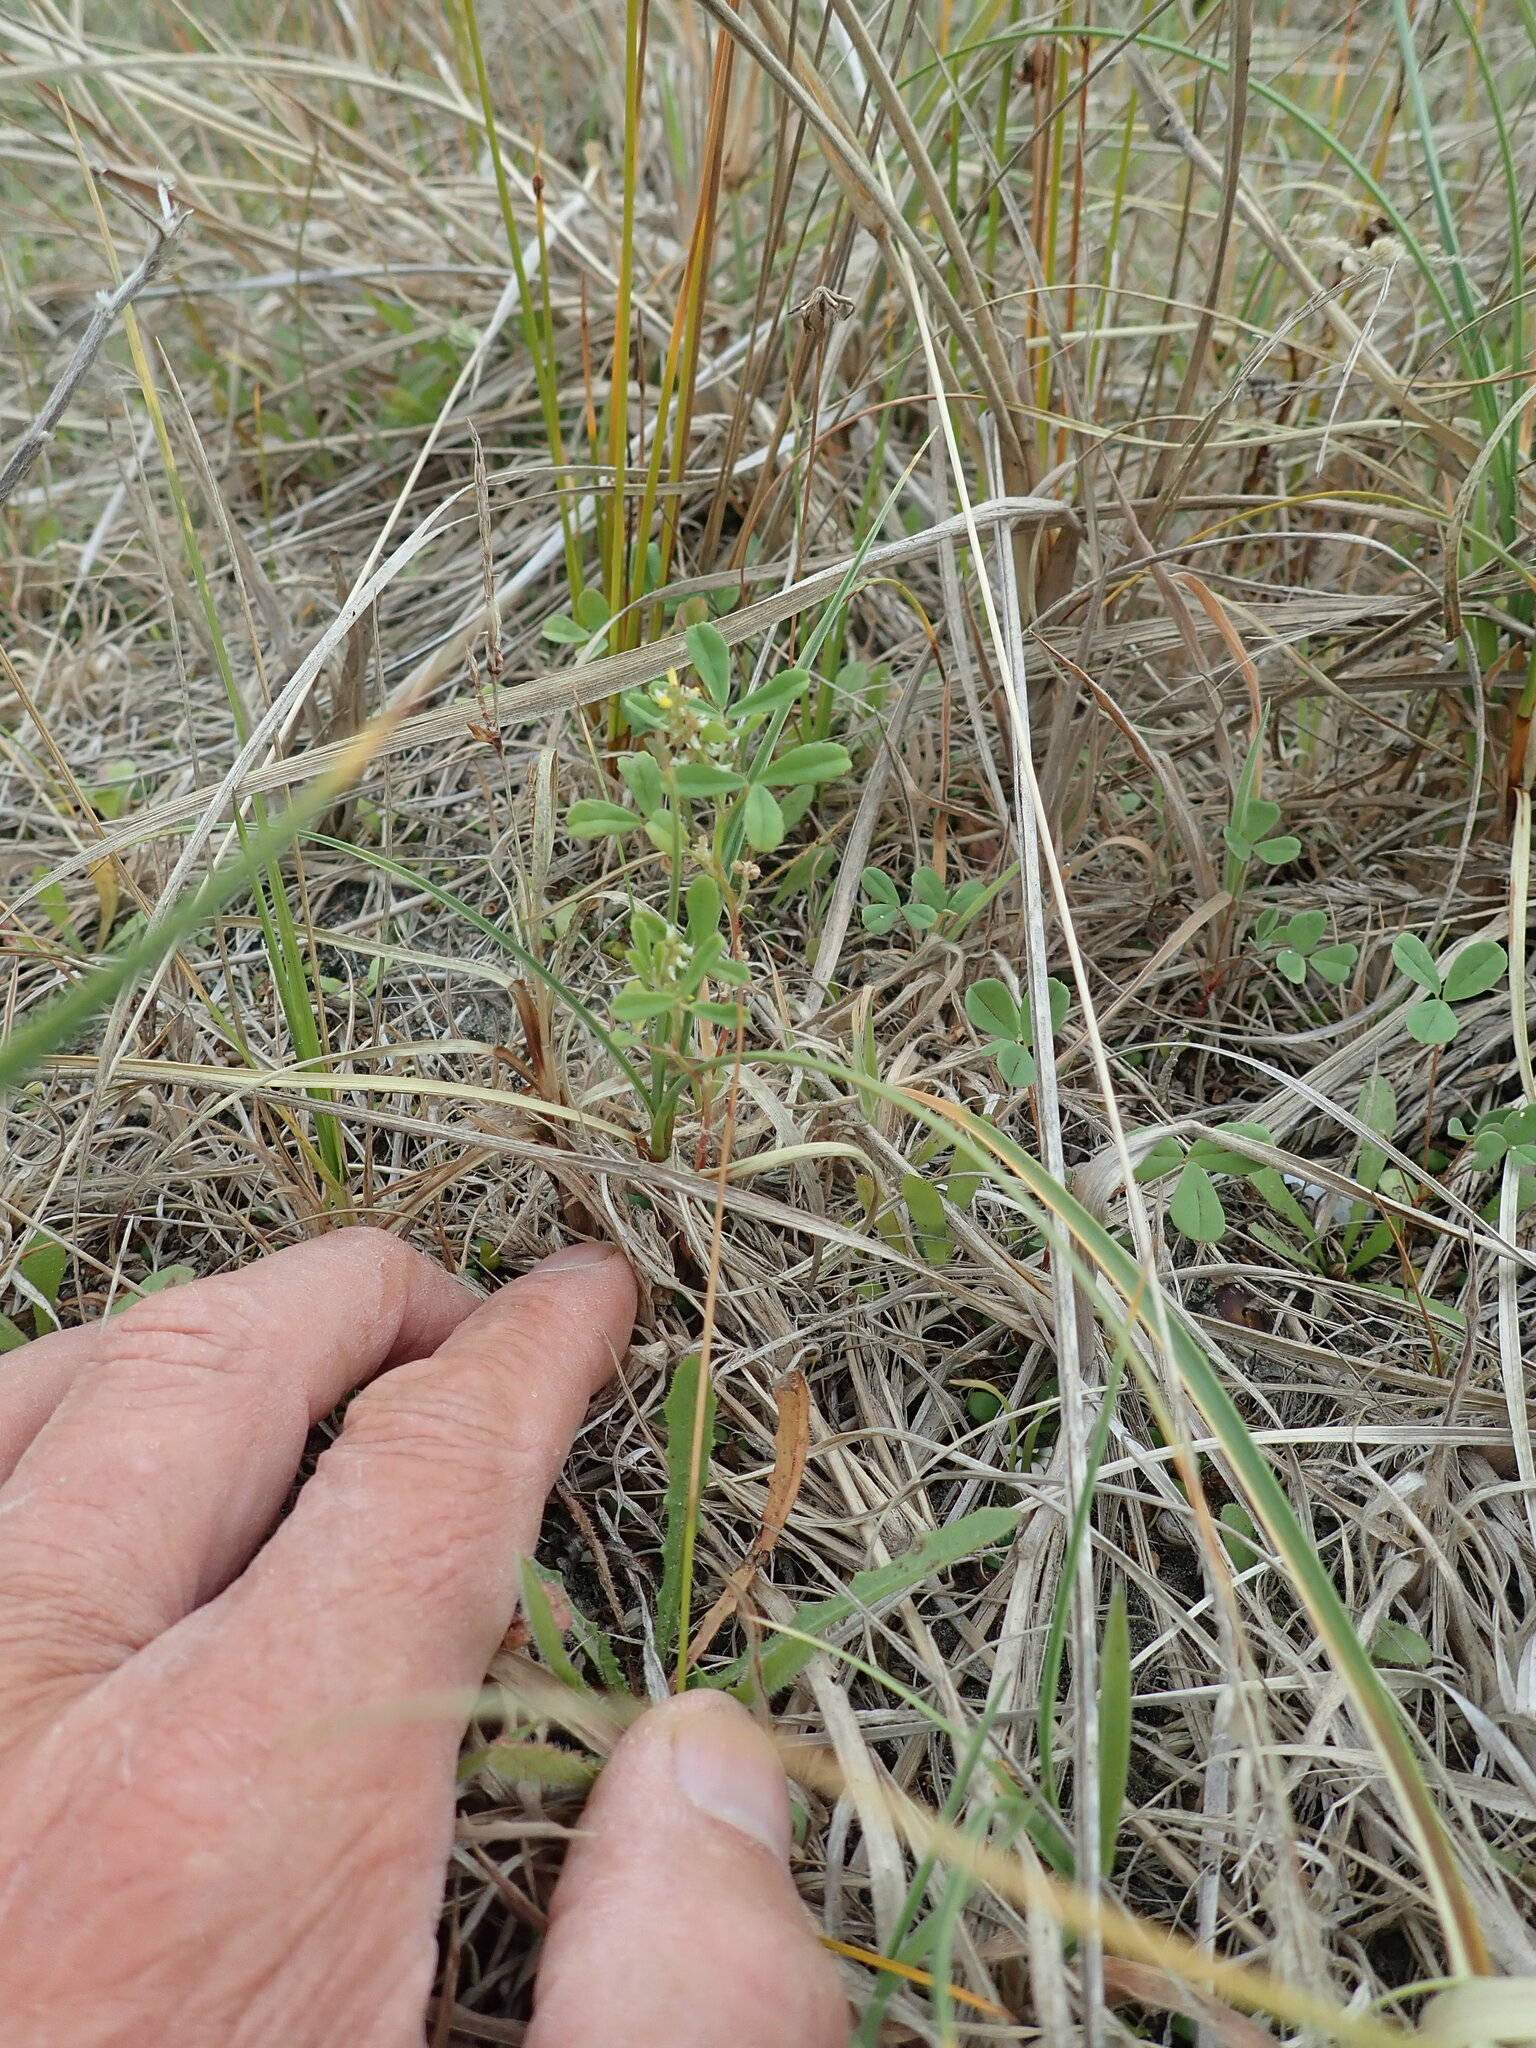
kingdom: Plantae
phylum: Tracheophyta
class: Magnoliopsida
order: Fabales
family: Fabaceae
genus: Melilotus
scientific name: Melilotus indicus
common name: Small melilot
